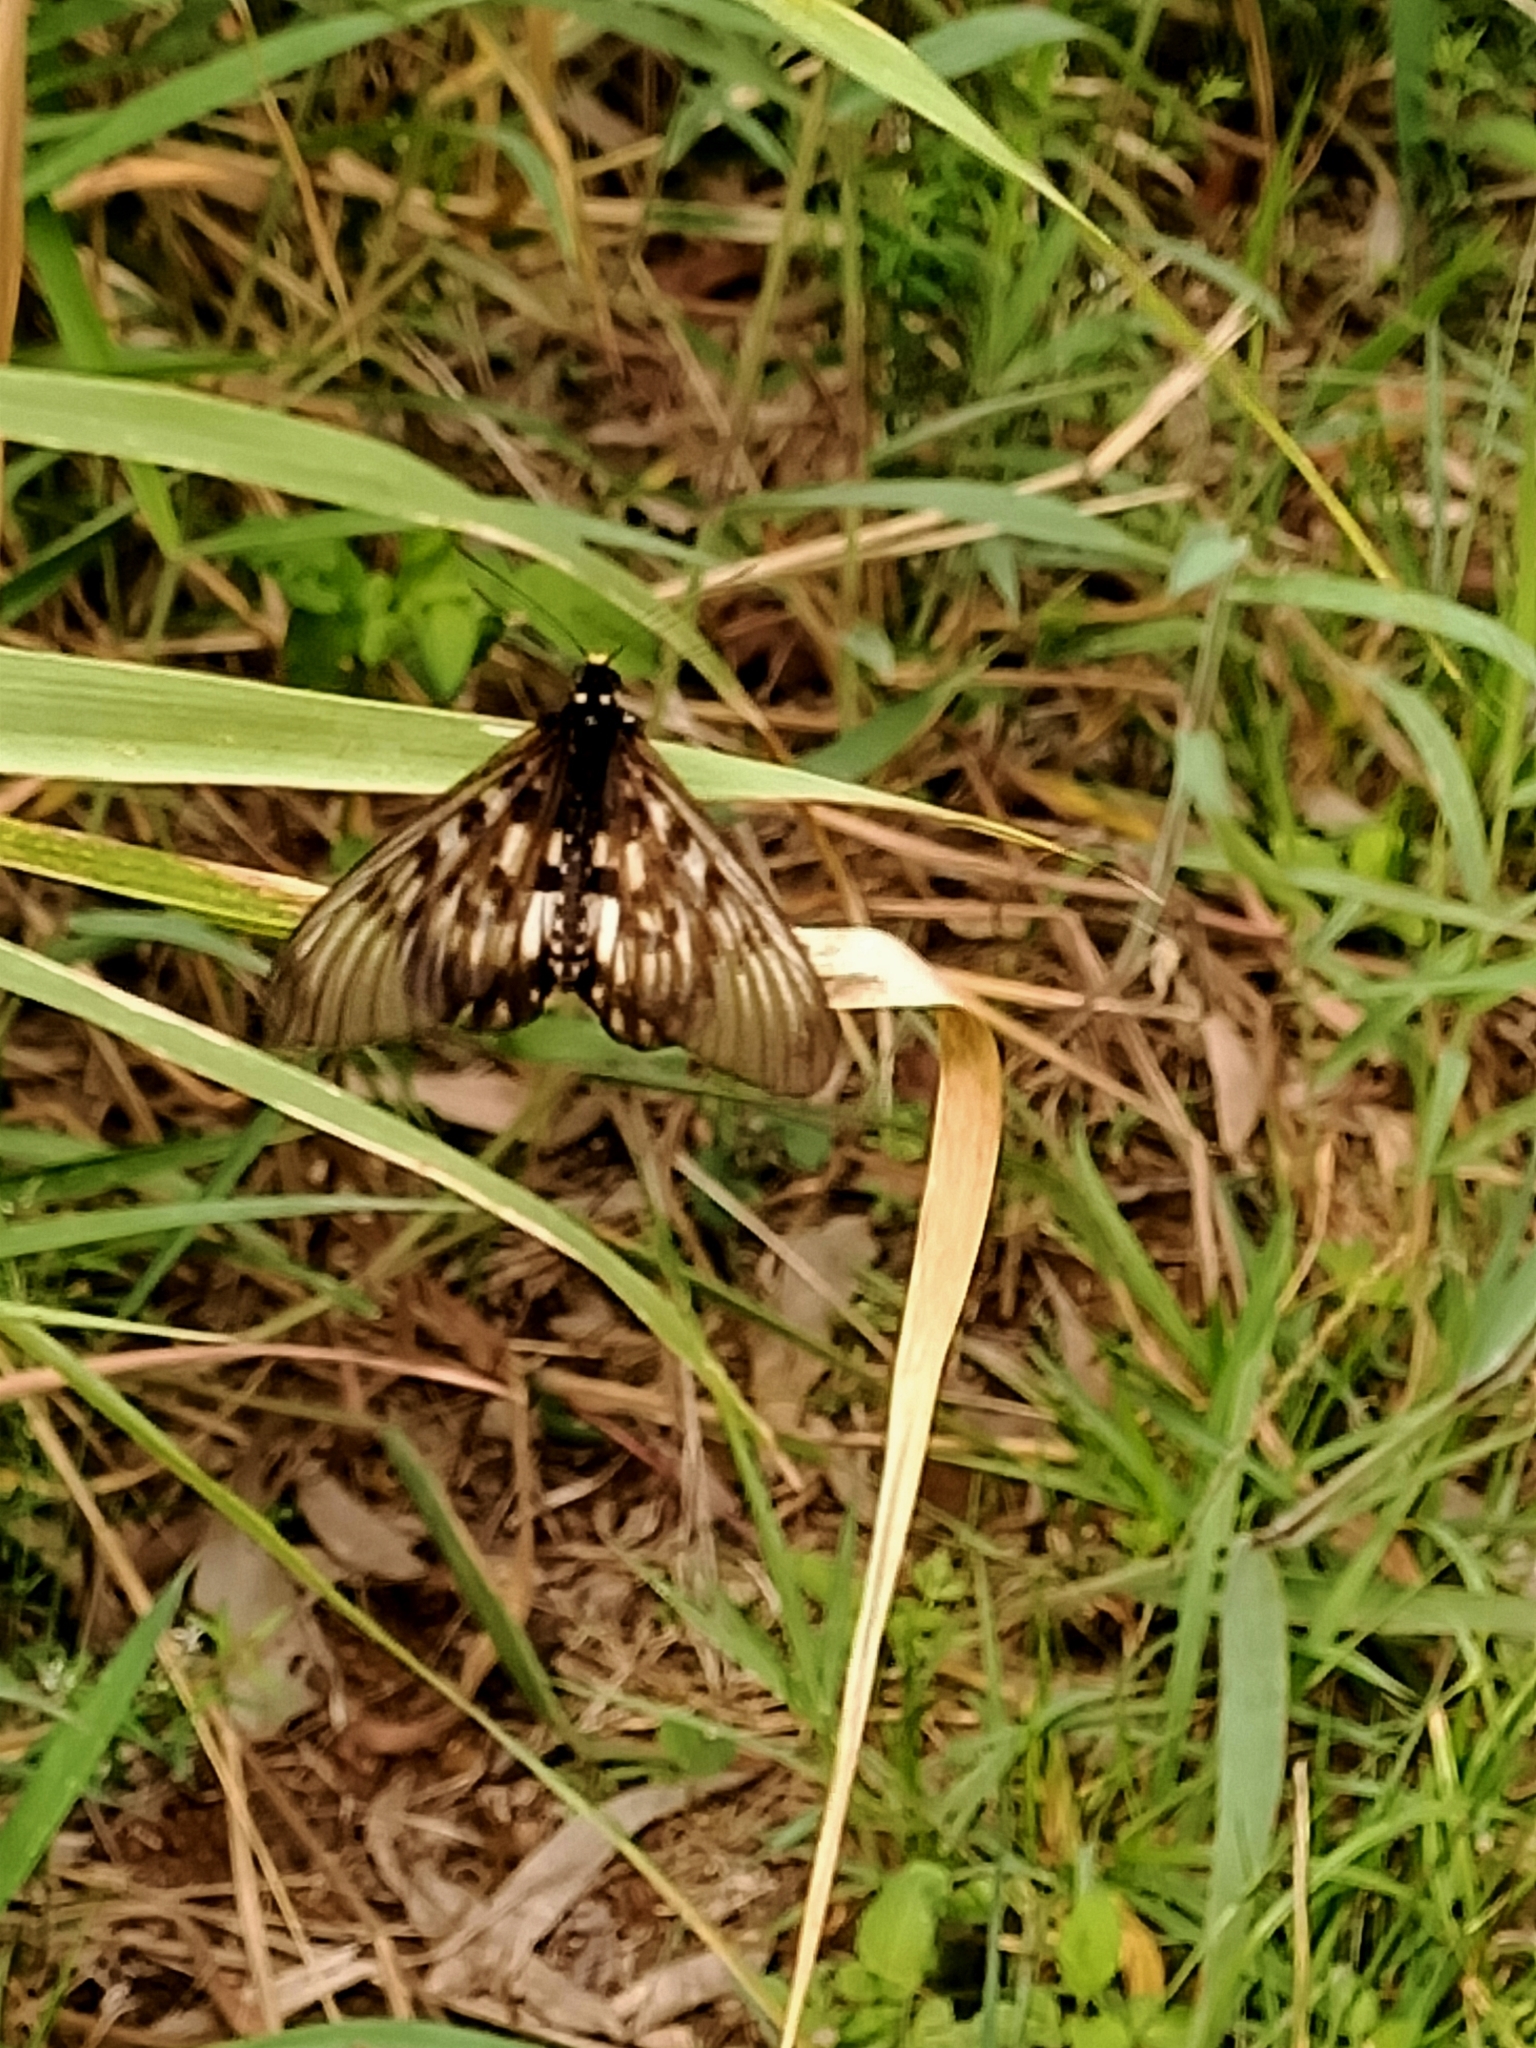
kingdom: Animalia
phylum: Arthropoda
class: Insecta
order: Lepidoptera
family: Nymphalidae
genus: Acraea
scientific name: Acraea andromacha
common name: Glasswing
